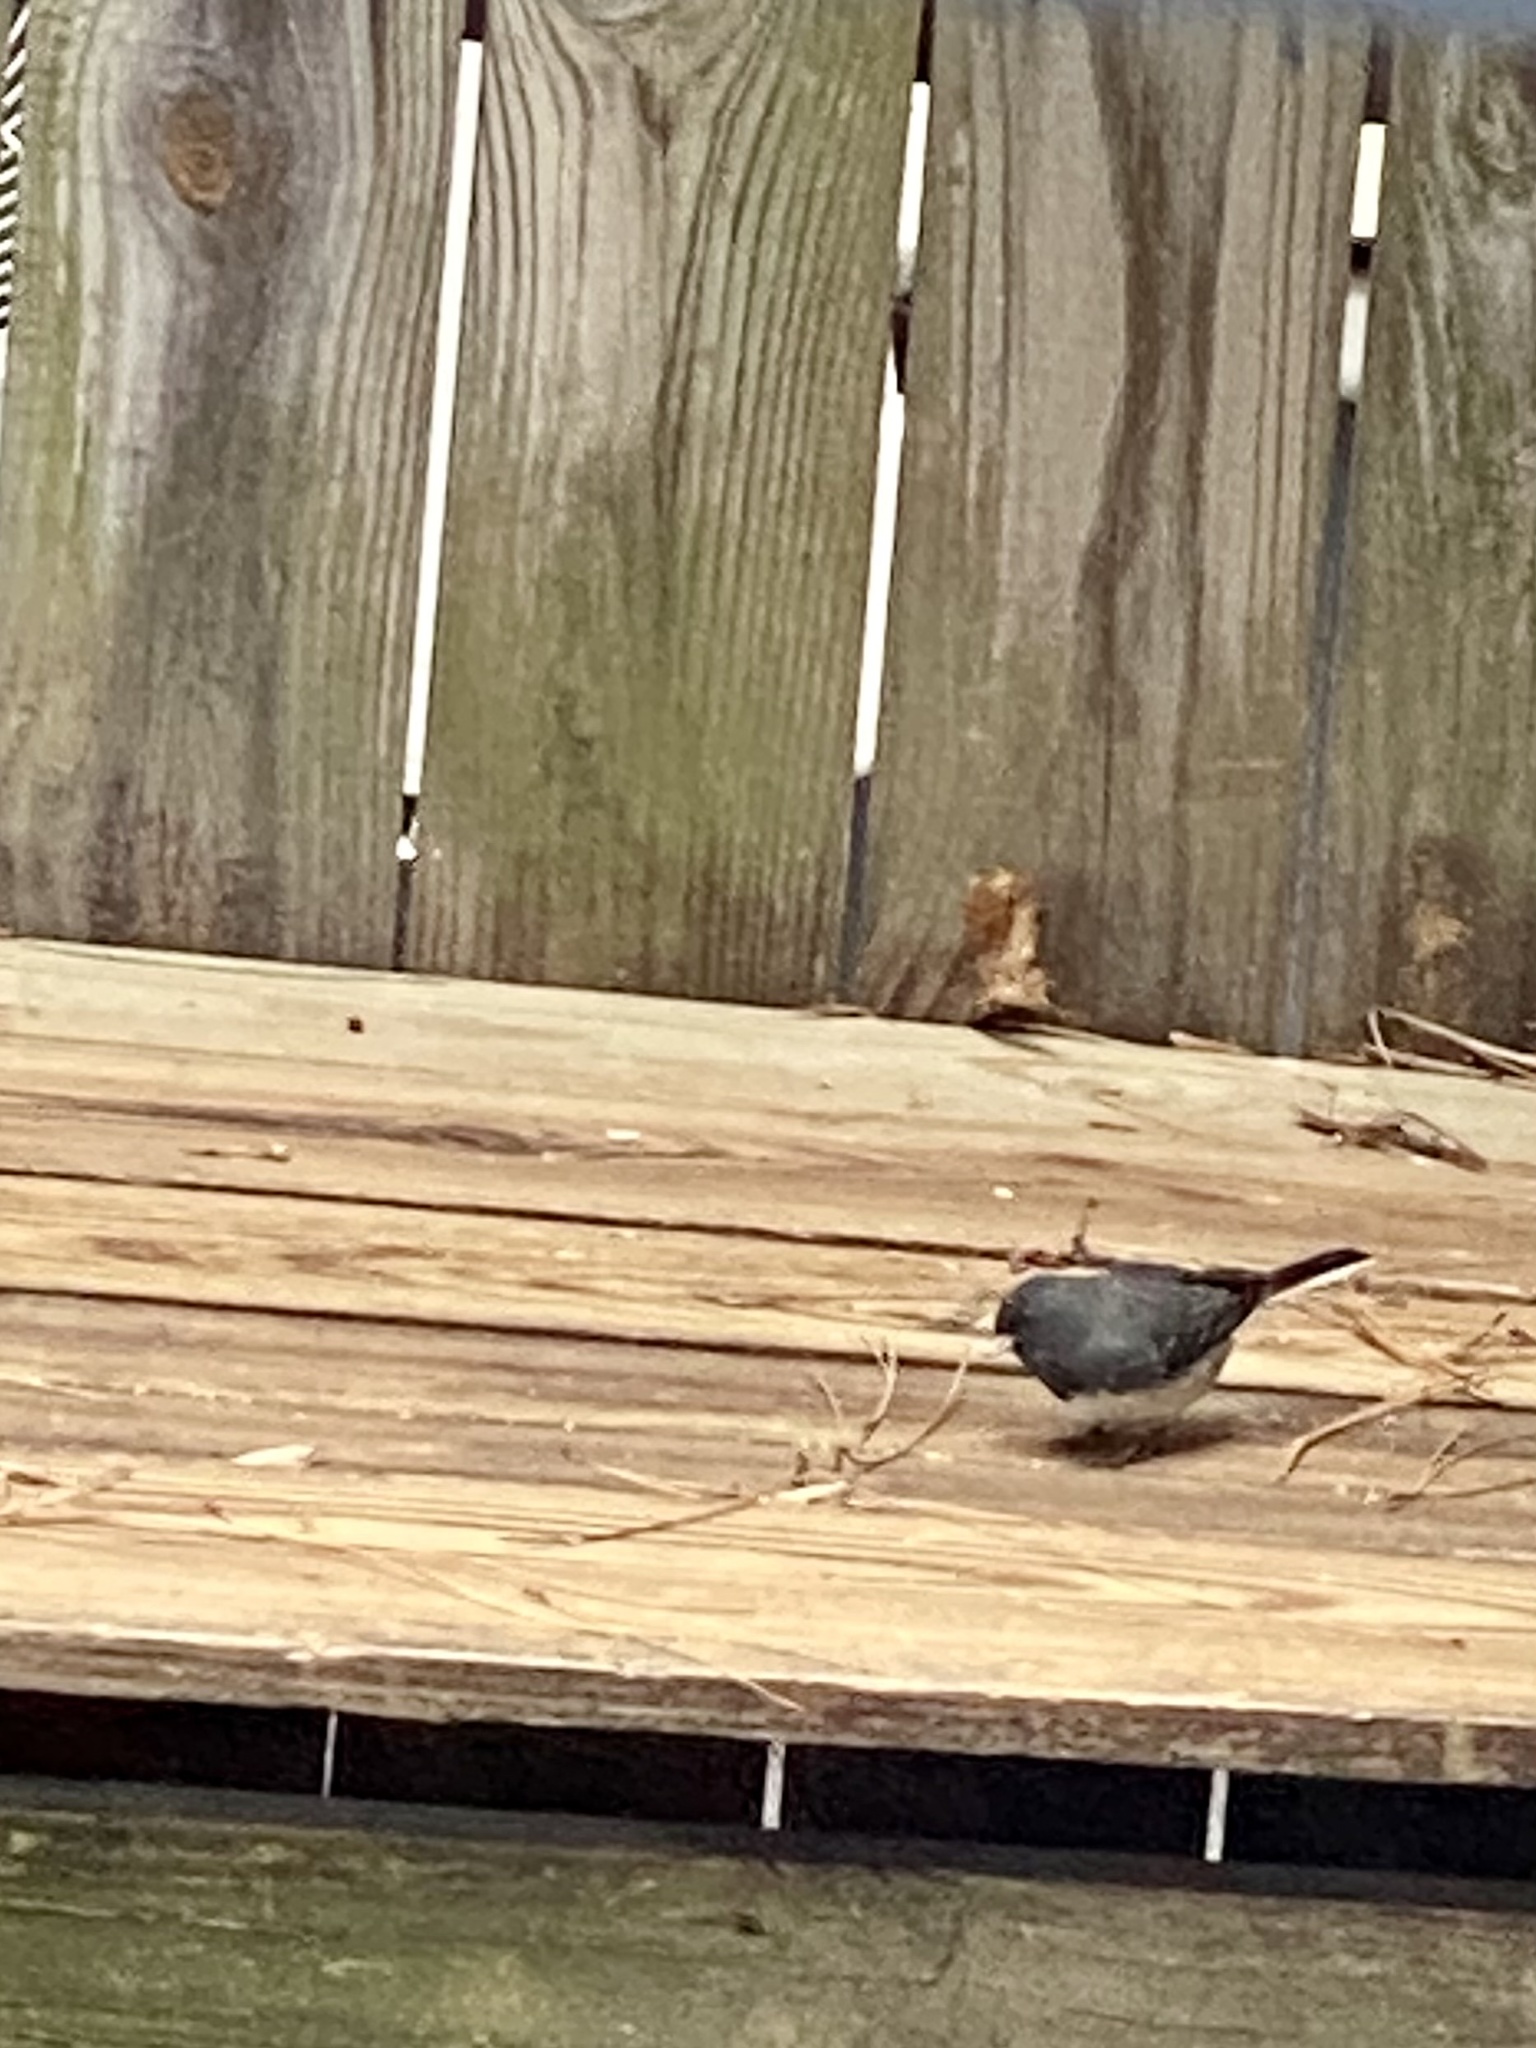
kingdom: Animalia
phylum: Chordata
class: Aves
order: Passeriformes
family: Passerellidae
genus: Junco
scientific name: Junco hyemalis
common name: Dark-eyed junco
